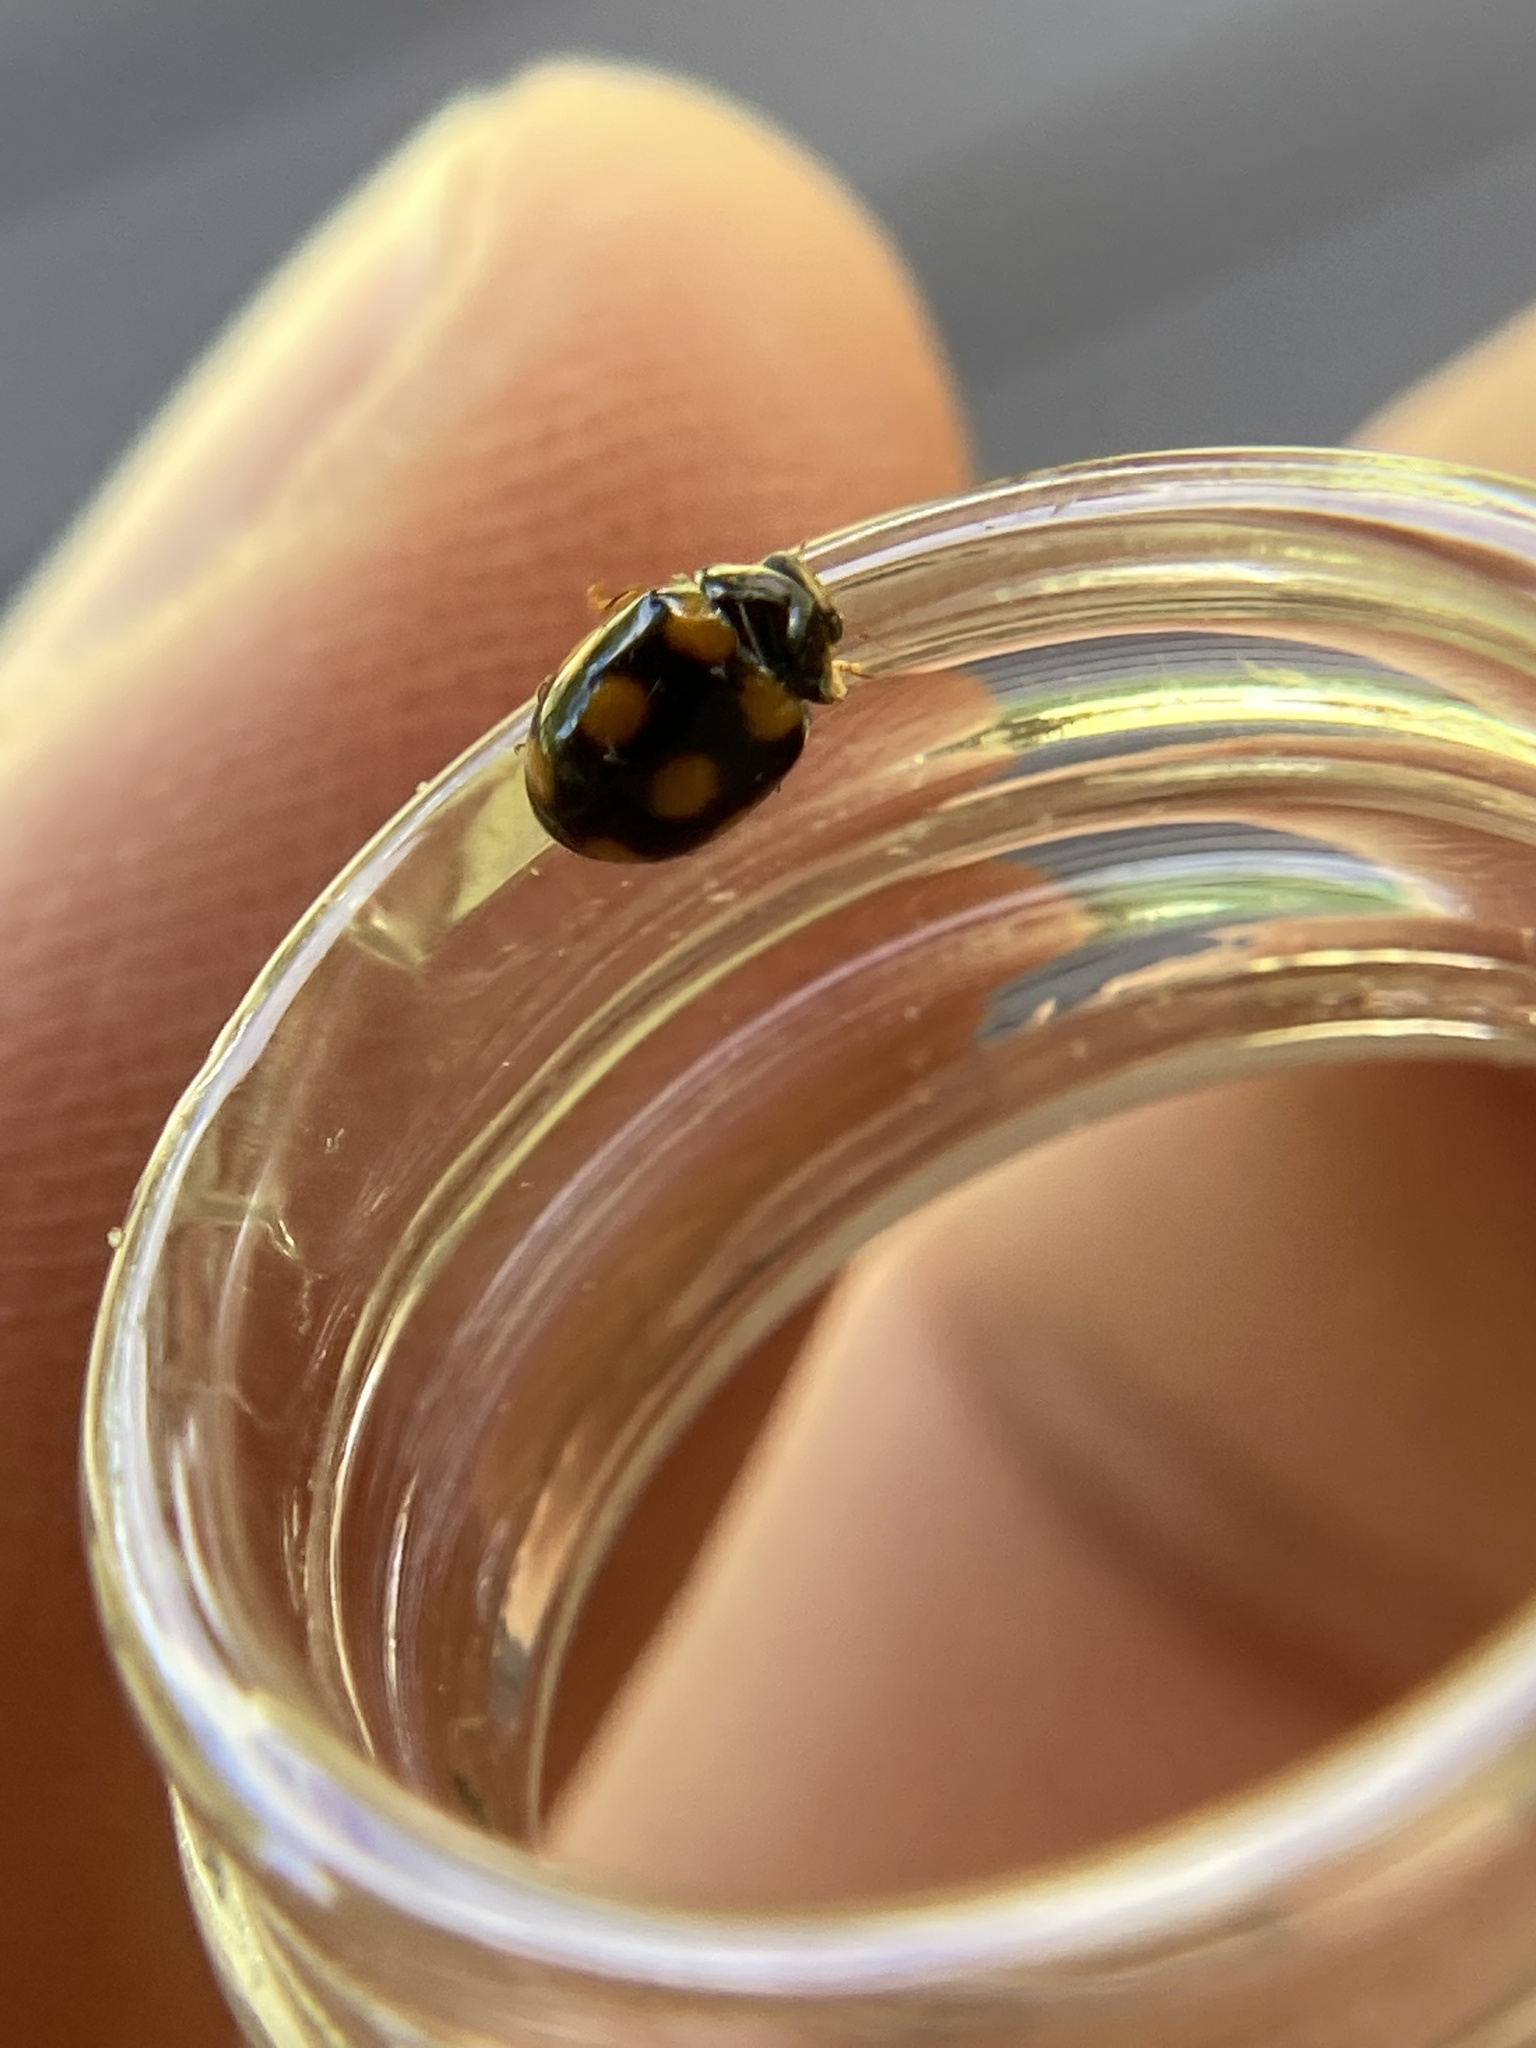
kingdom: Animalia
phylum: Arthropoda
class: Insecta
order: Coleoptera
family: Coccinellidae
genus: Brachiacantha
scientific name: Brachiacantha ursina
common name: Ursine spurleg lady beetle
